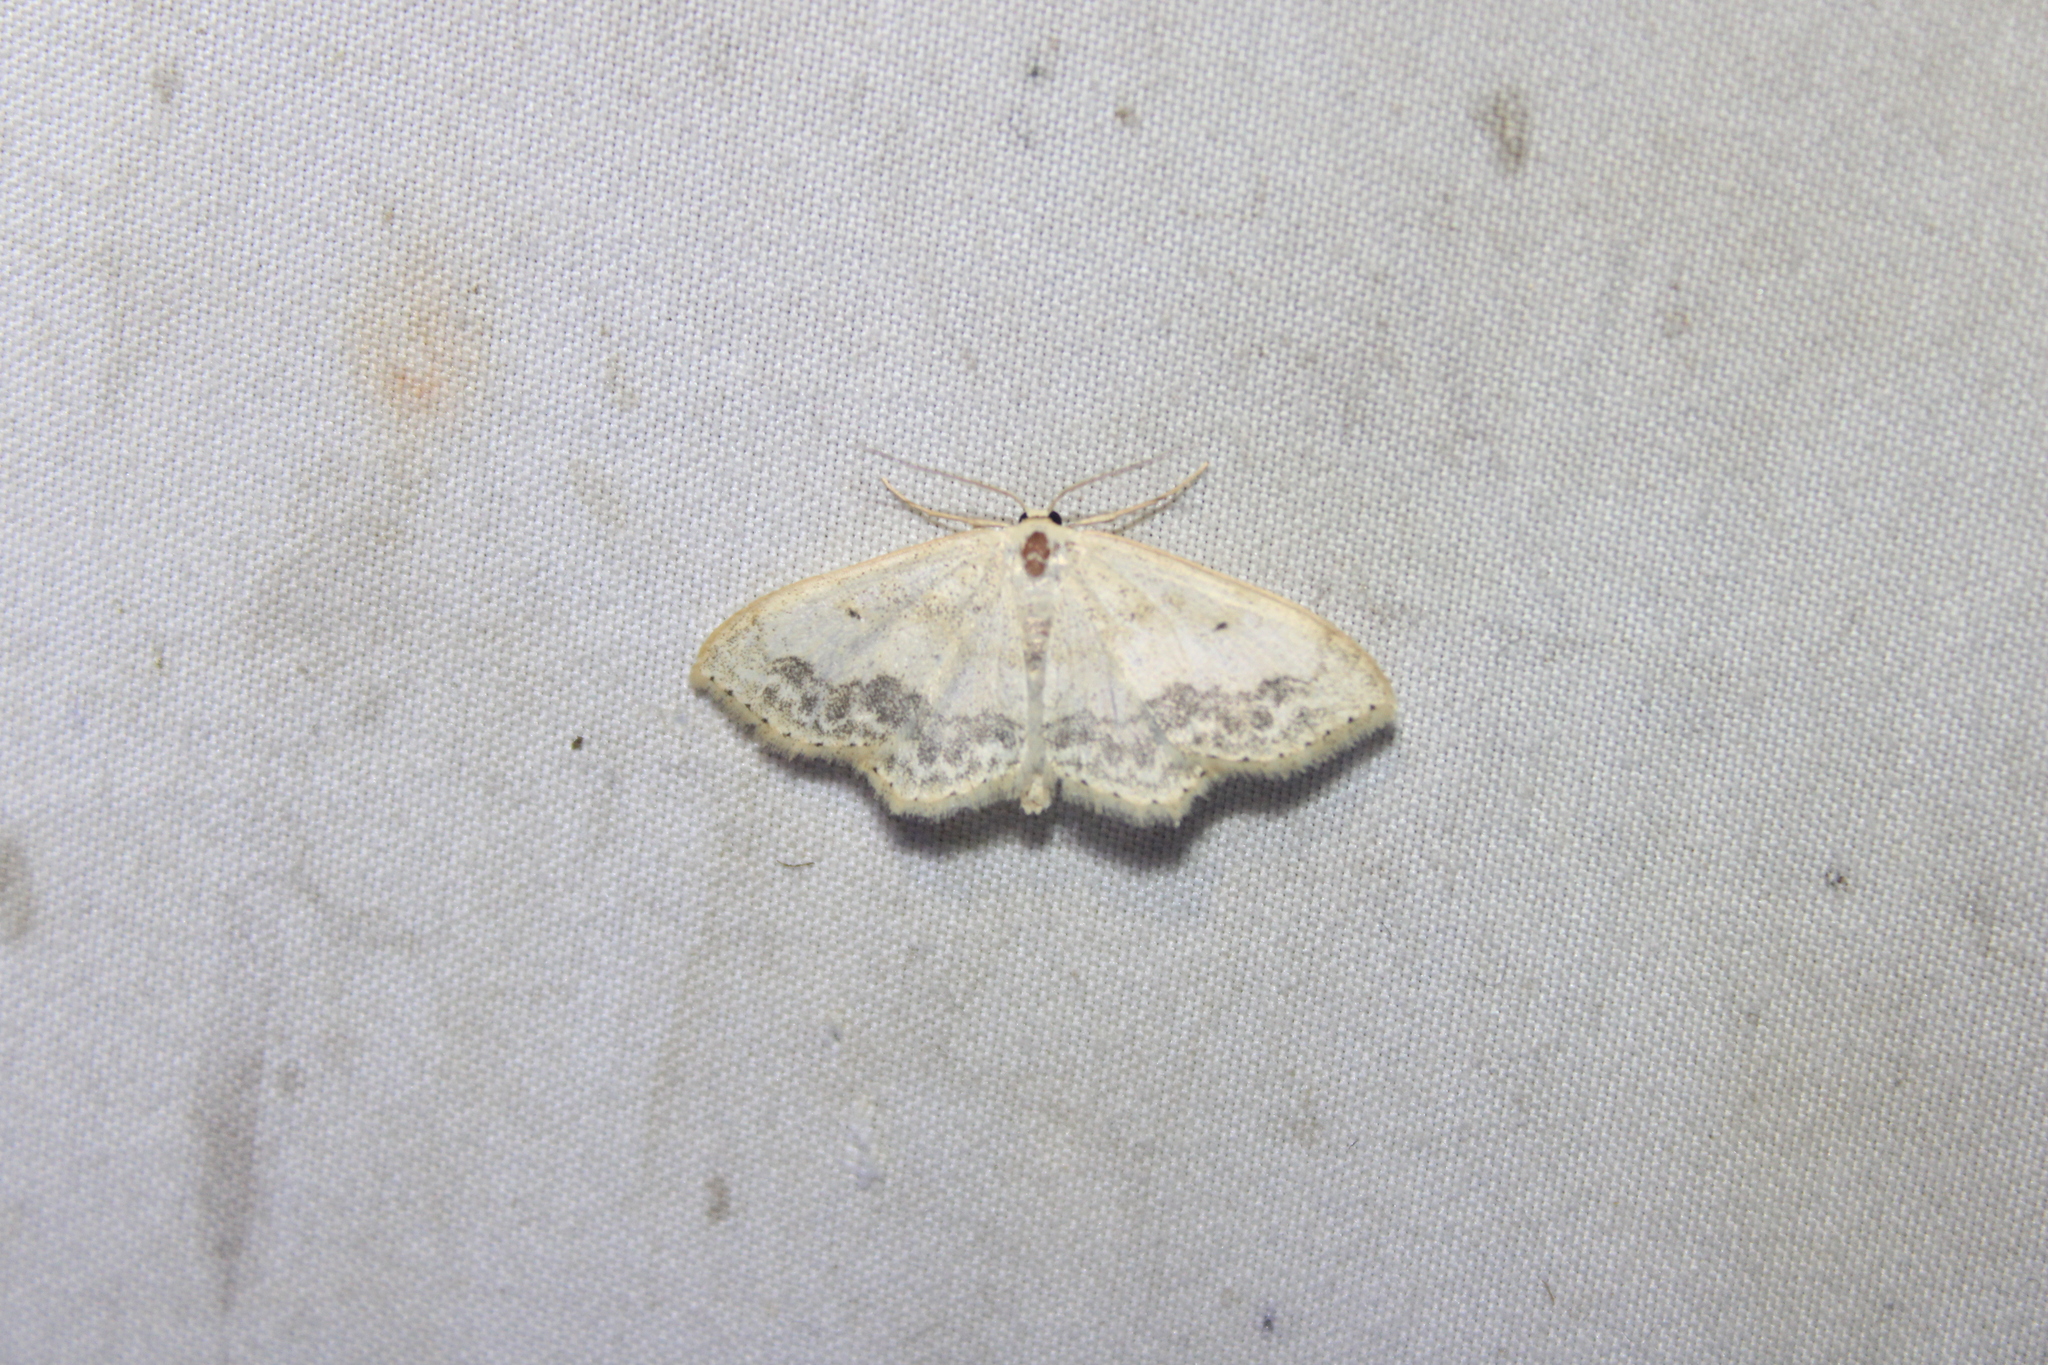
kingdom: Animalia
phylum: Arthropoda
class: Insecta
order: Lepidoptera
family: Geometridae
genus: Scopula
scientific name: Scopula limboundata
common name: Large lace border
